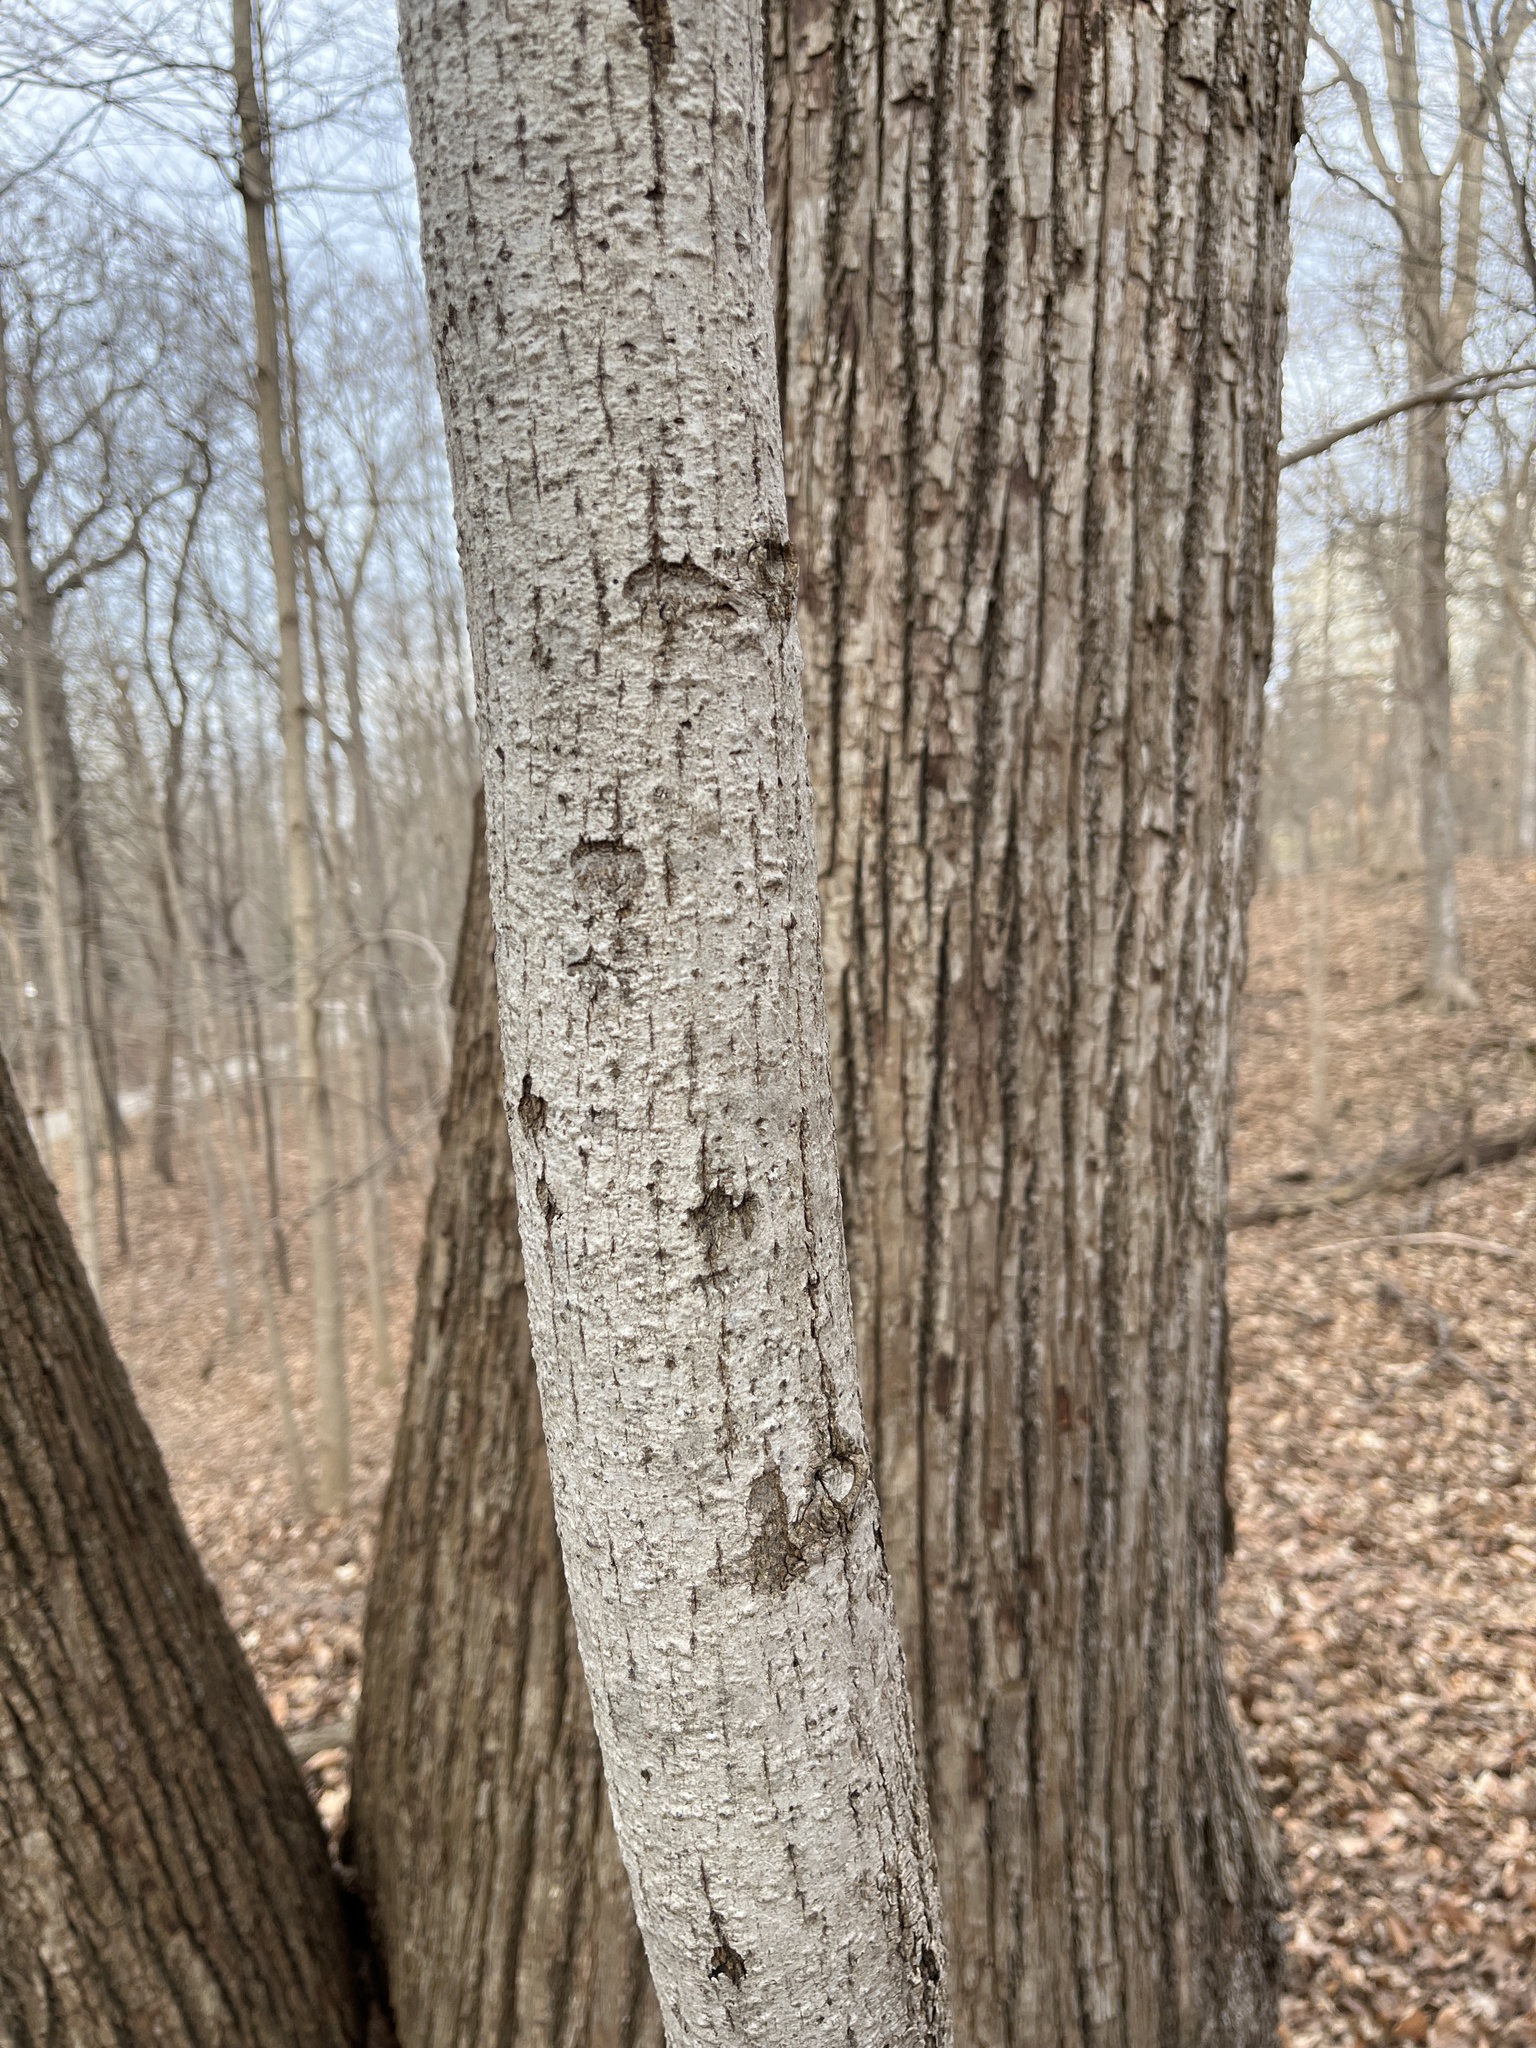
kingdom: Plantae
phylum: Tracheophyta
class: Magnoliopsida
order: Malvales
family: Malvaceae
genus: Tilia
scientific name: Tilia americana
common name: Basswood
